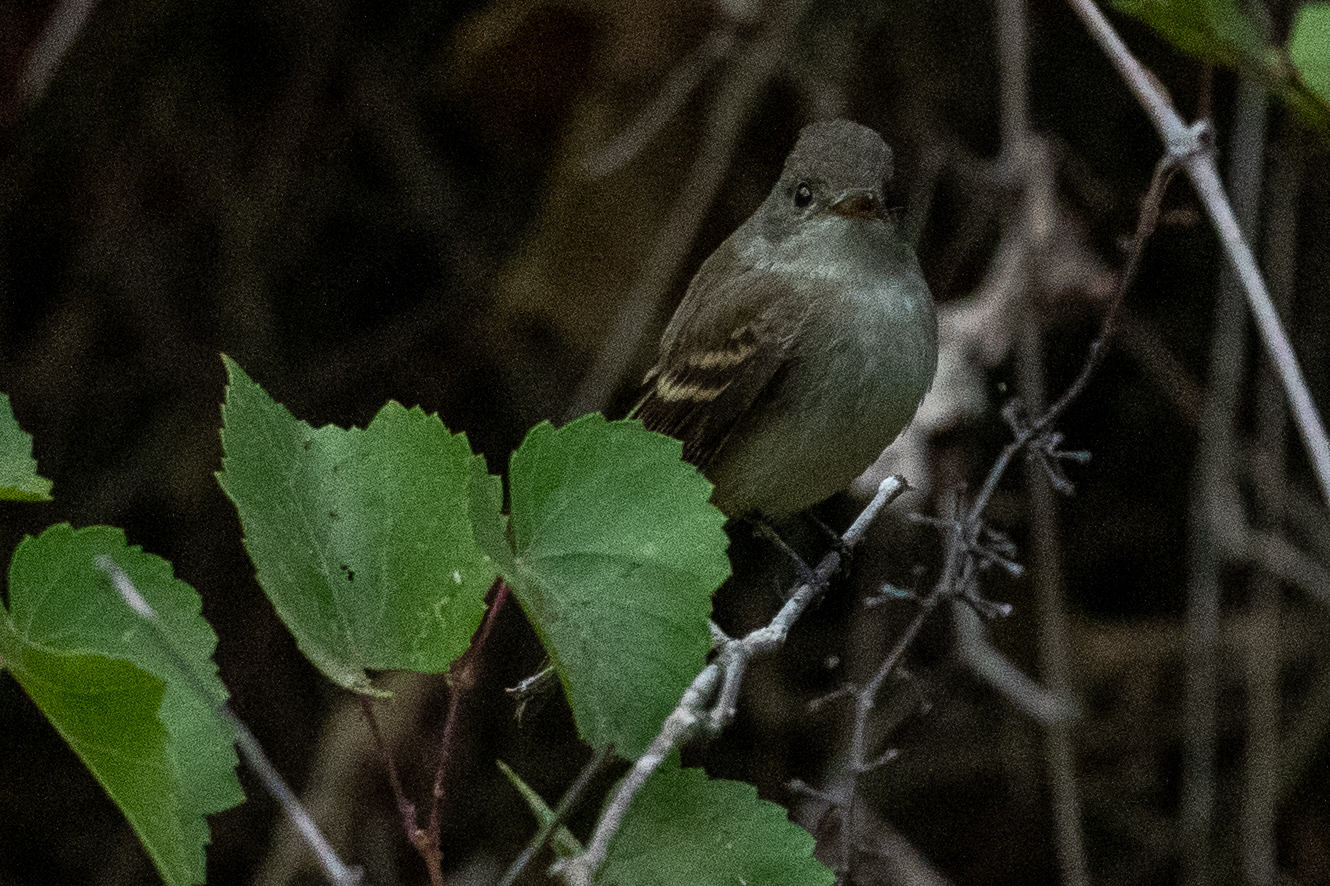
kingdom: Animalia
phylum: Chordata
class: Aves
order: Passeriformes
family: Tyrannidae
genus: Empidonax
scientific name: Empidonax traillii
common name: Willow flycatcher
